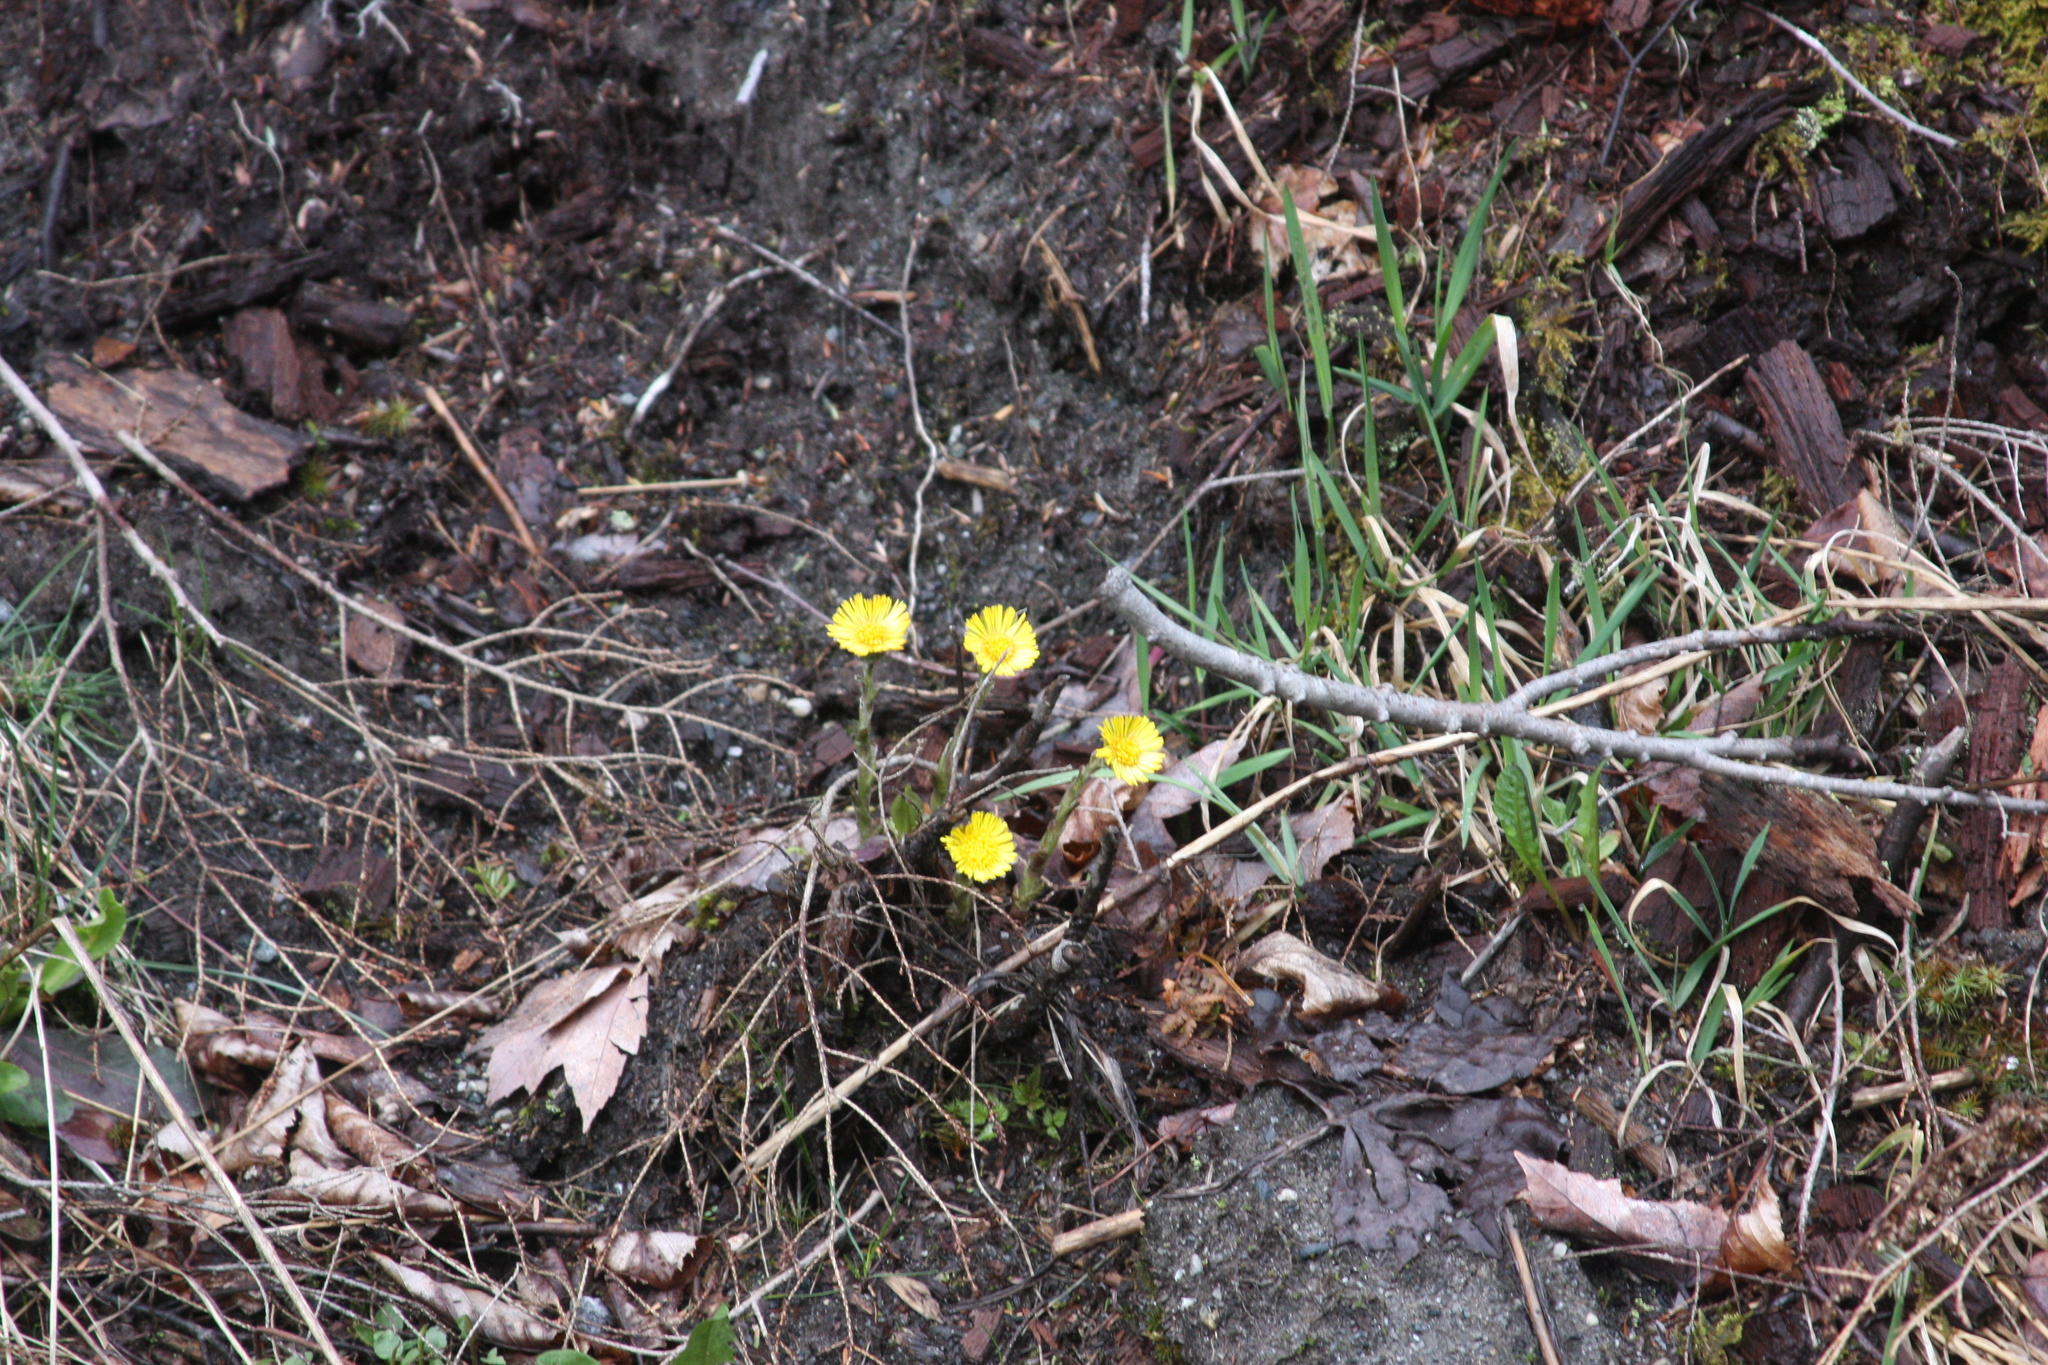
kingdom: Plantae
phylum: Tracheophyta
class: Magnoliopsida
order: Asterales
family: Asteraceae
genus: Tussilago
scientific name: Tussilago farfara
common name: Coltsfoot
